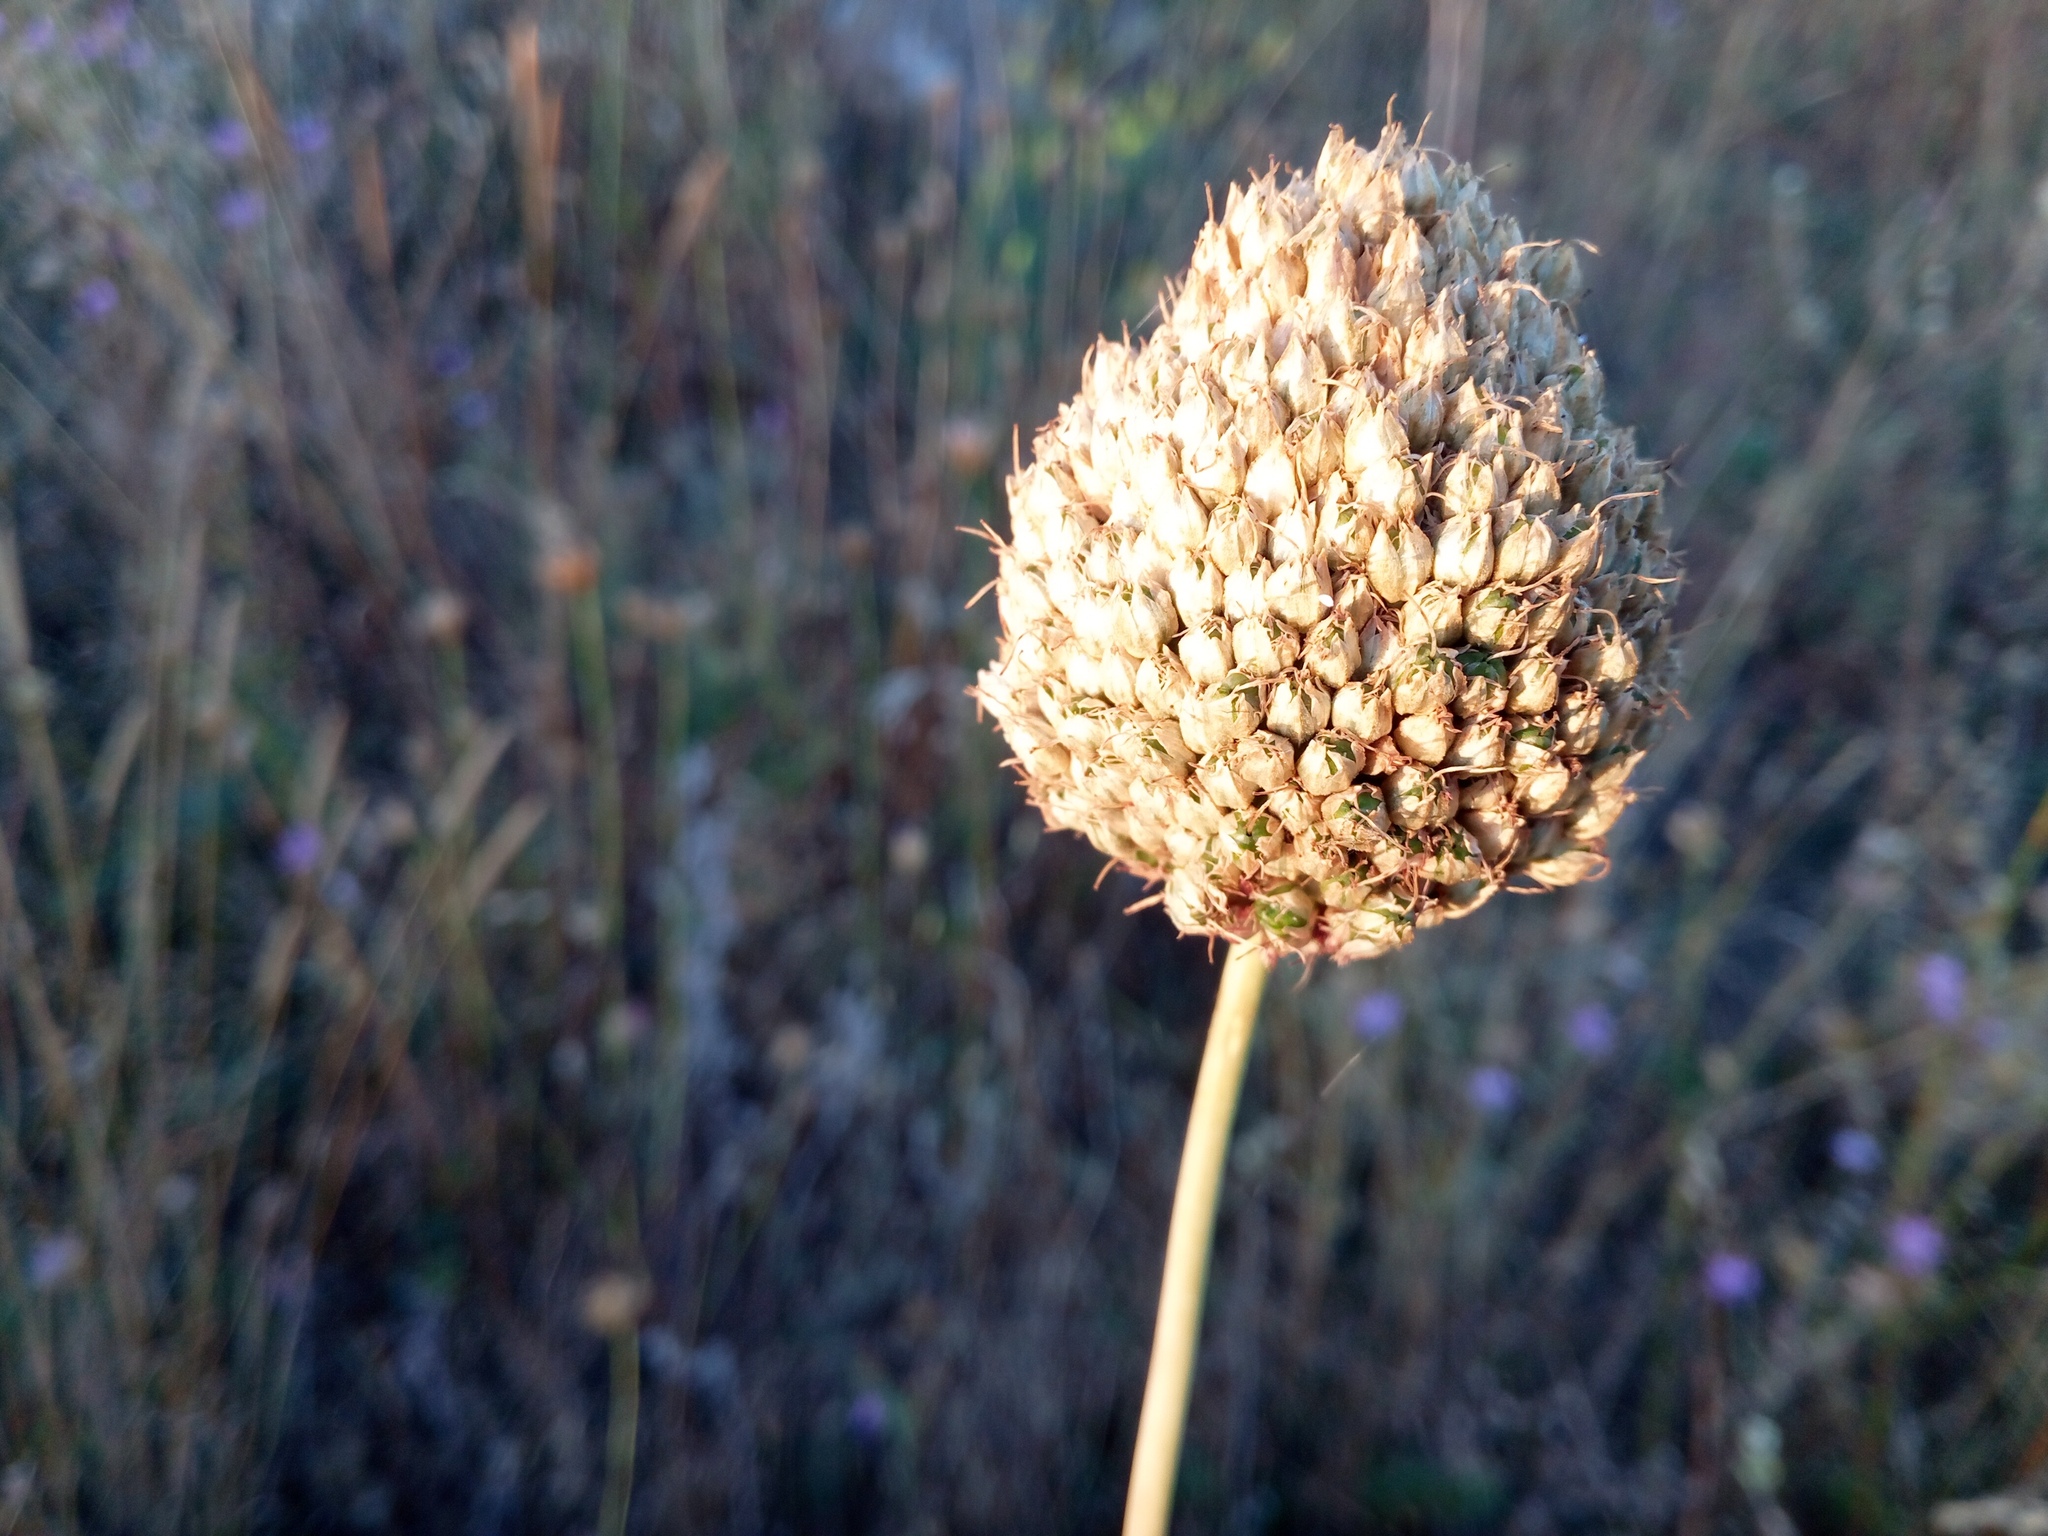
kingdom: Plantae
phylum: Tracheophyta
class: Liliopsida
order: Asparagales
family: Amaryllidaceae
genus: Allium
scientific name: Allium sphaerocephalon
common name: Round-headed leek
